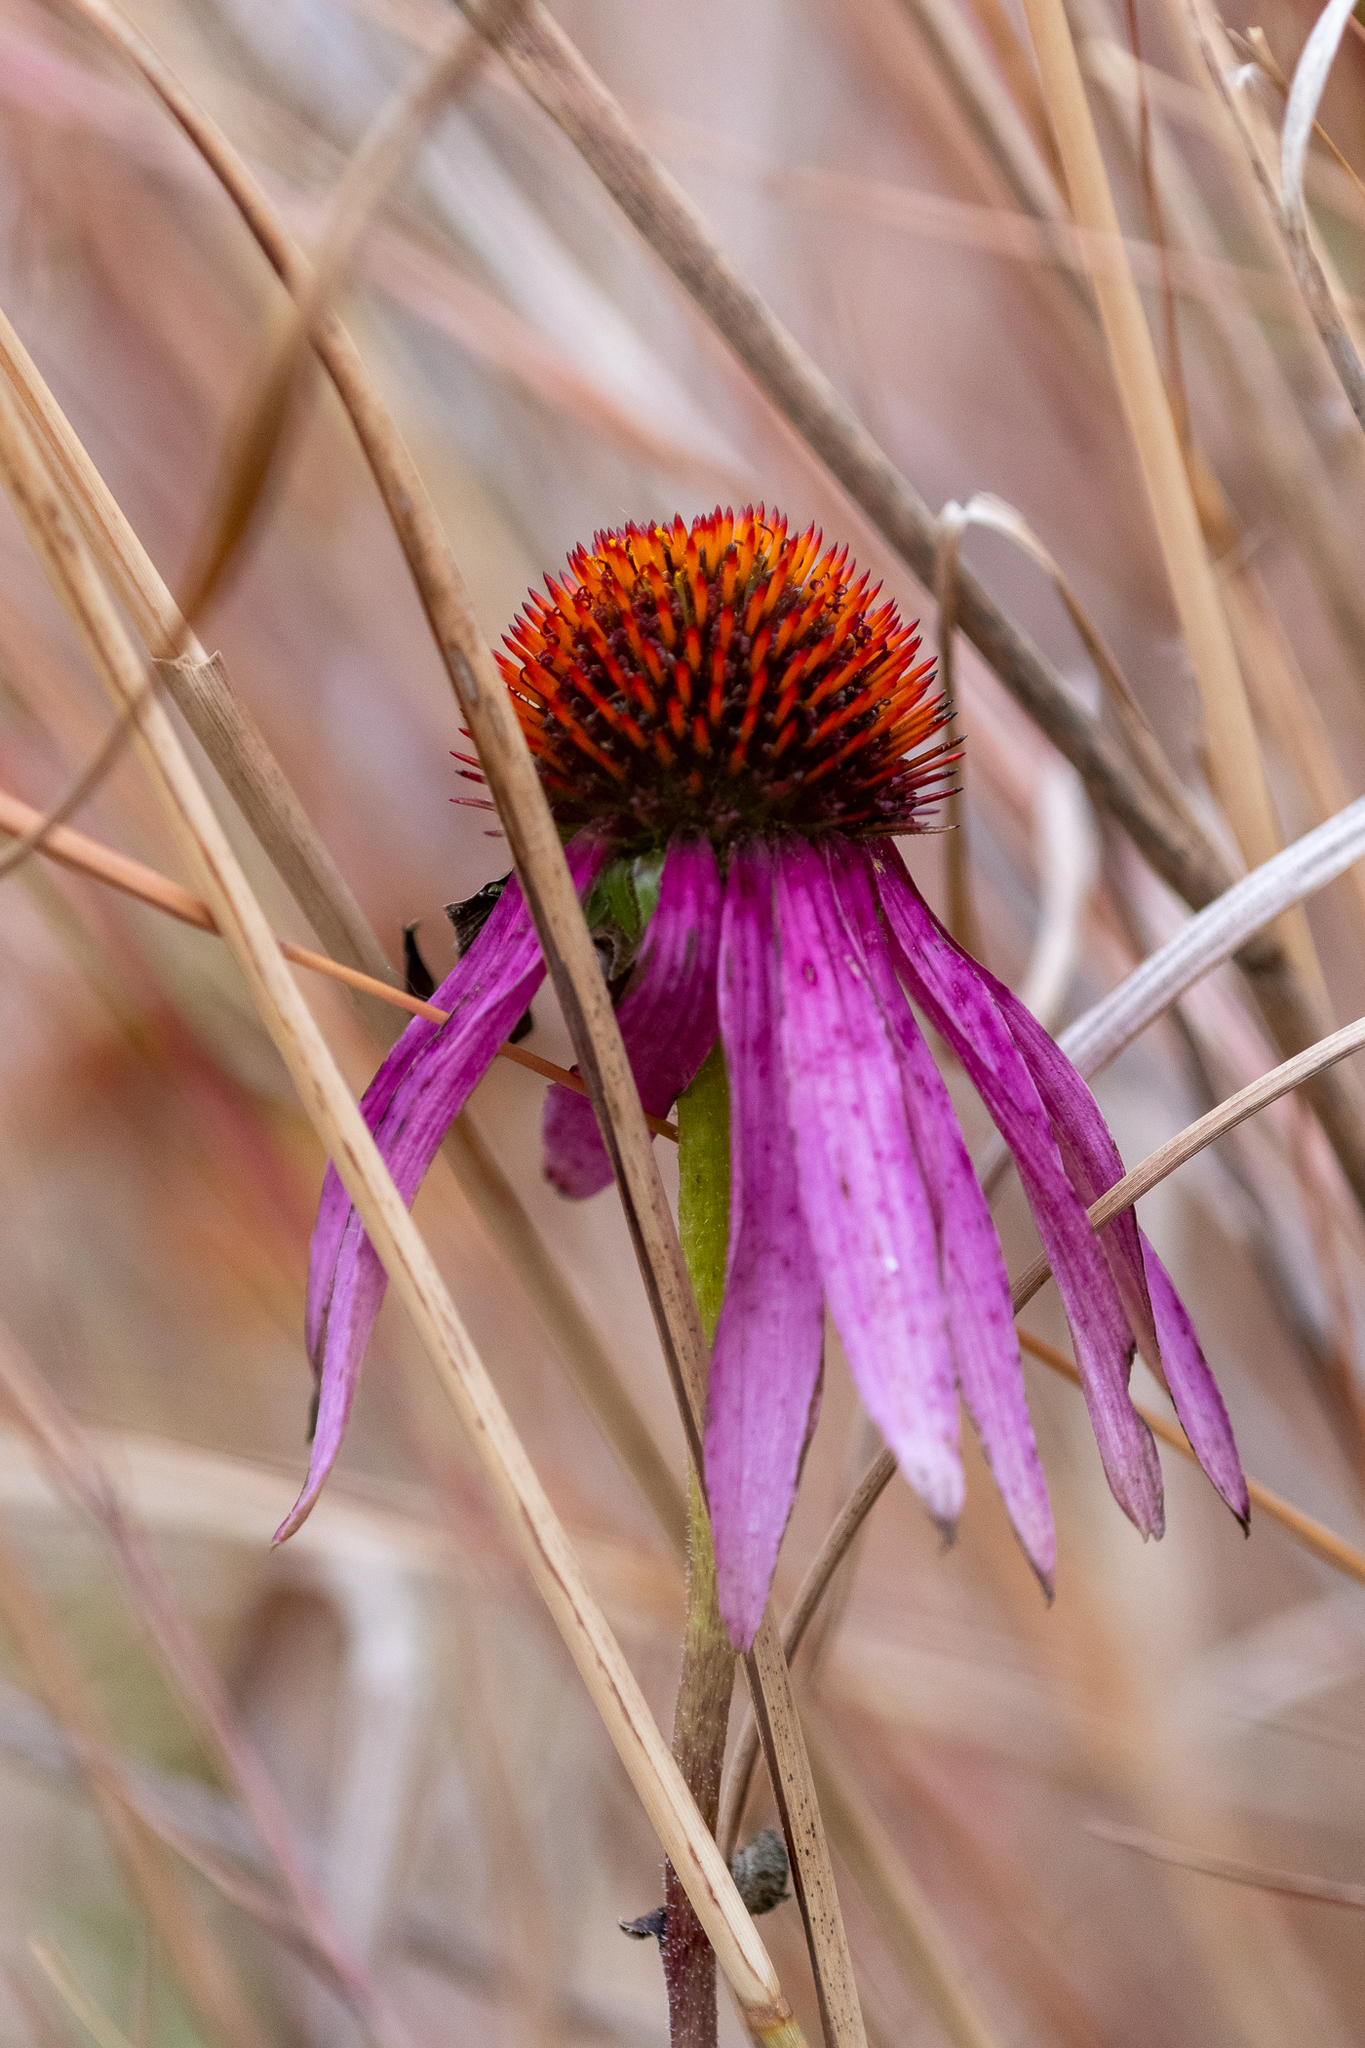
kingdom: Plantae
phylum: Tracheophyta
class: Magnoliopsida
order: Asterales
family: Asteraceae
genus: Echinacea
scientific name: Echinacea purpurea
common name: Broad-leaved purple coneflower
